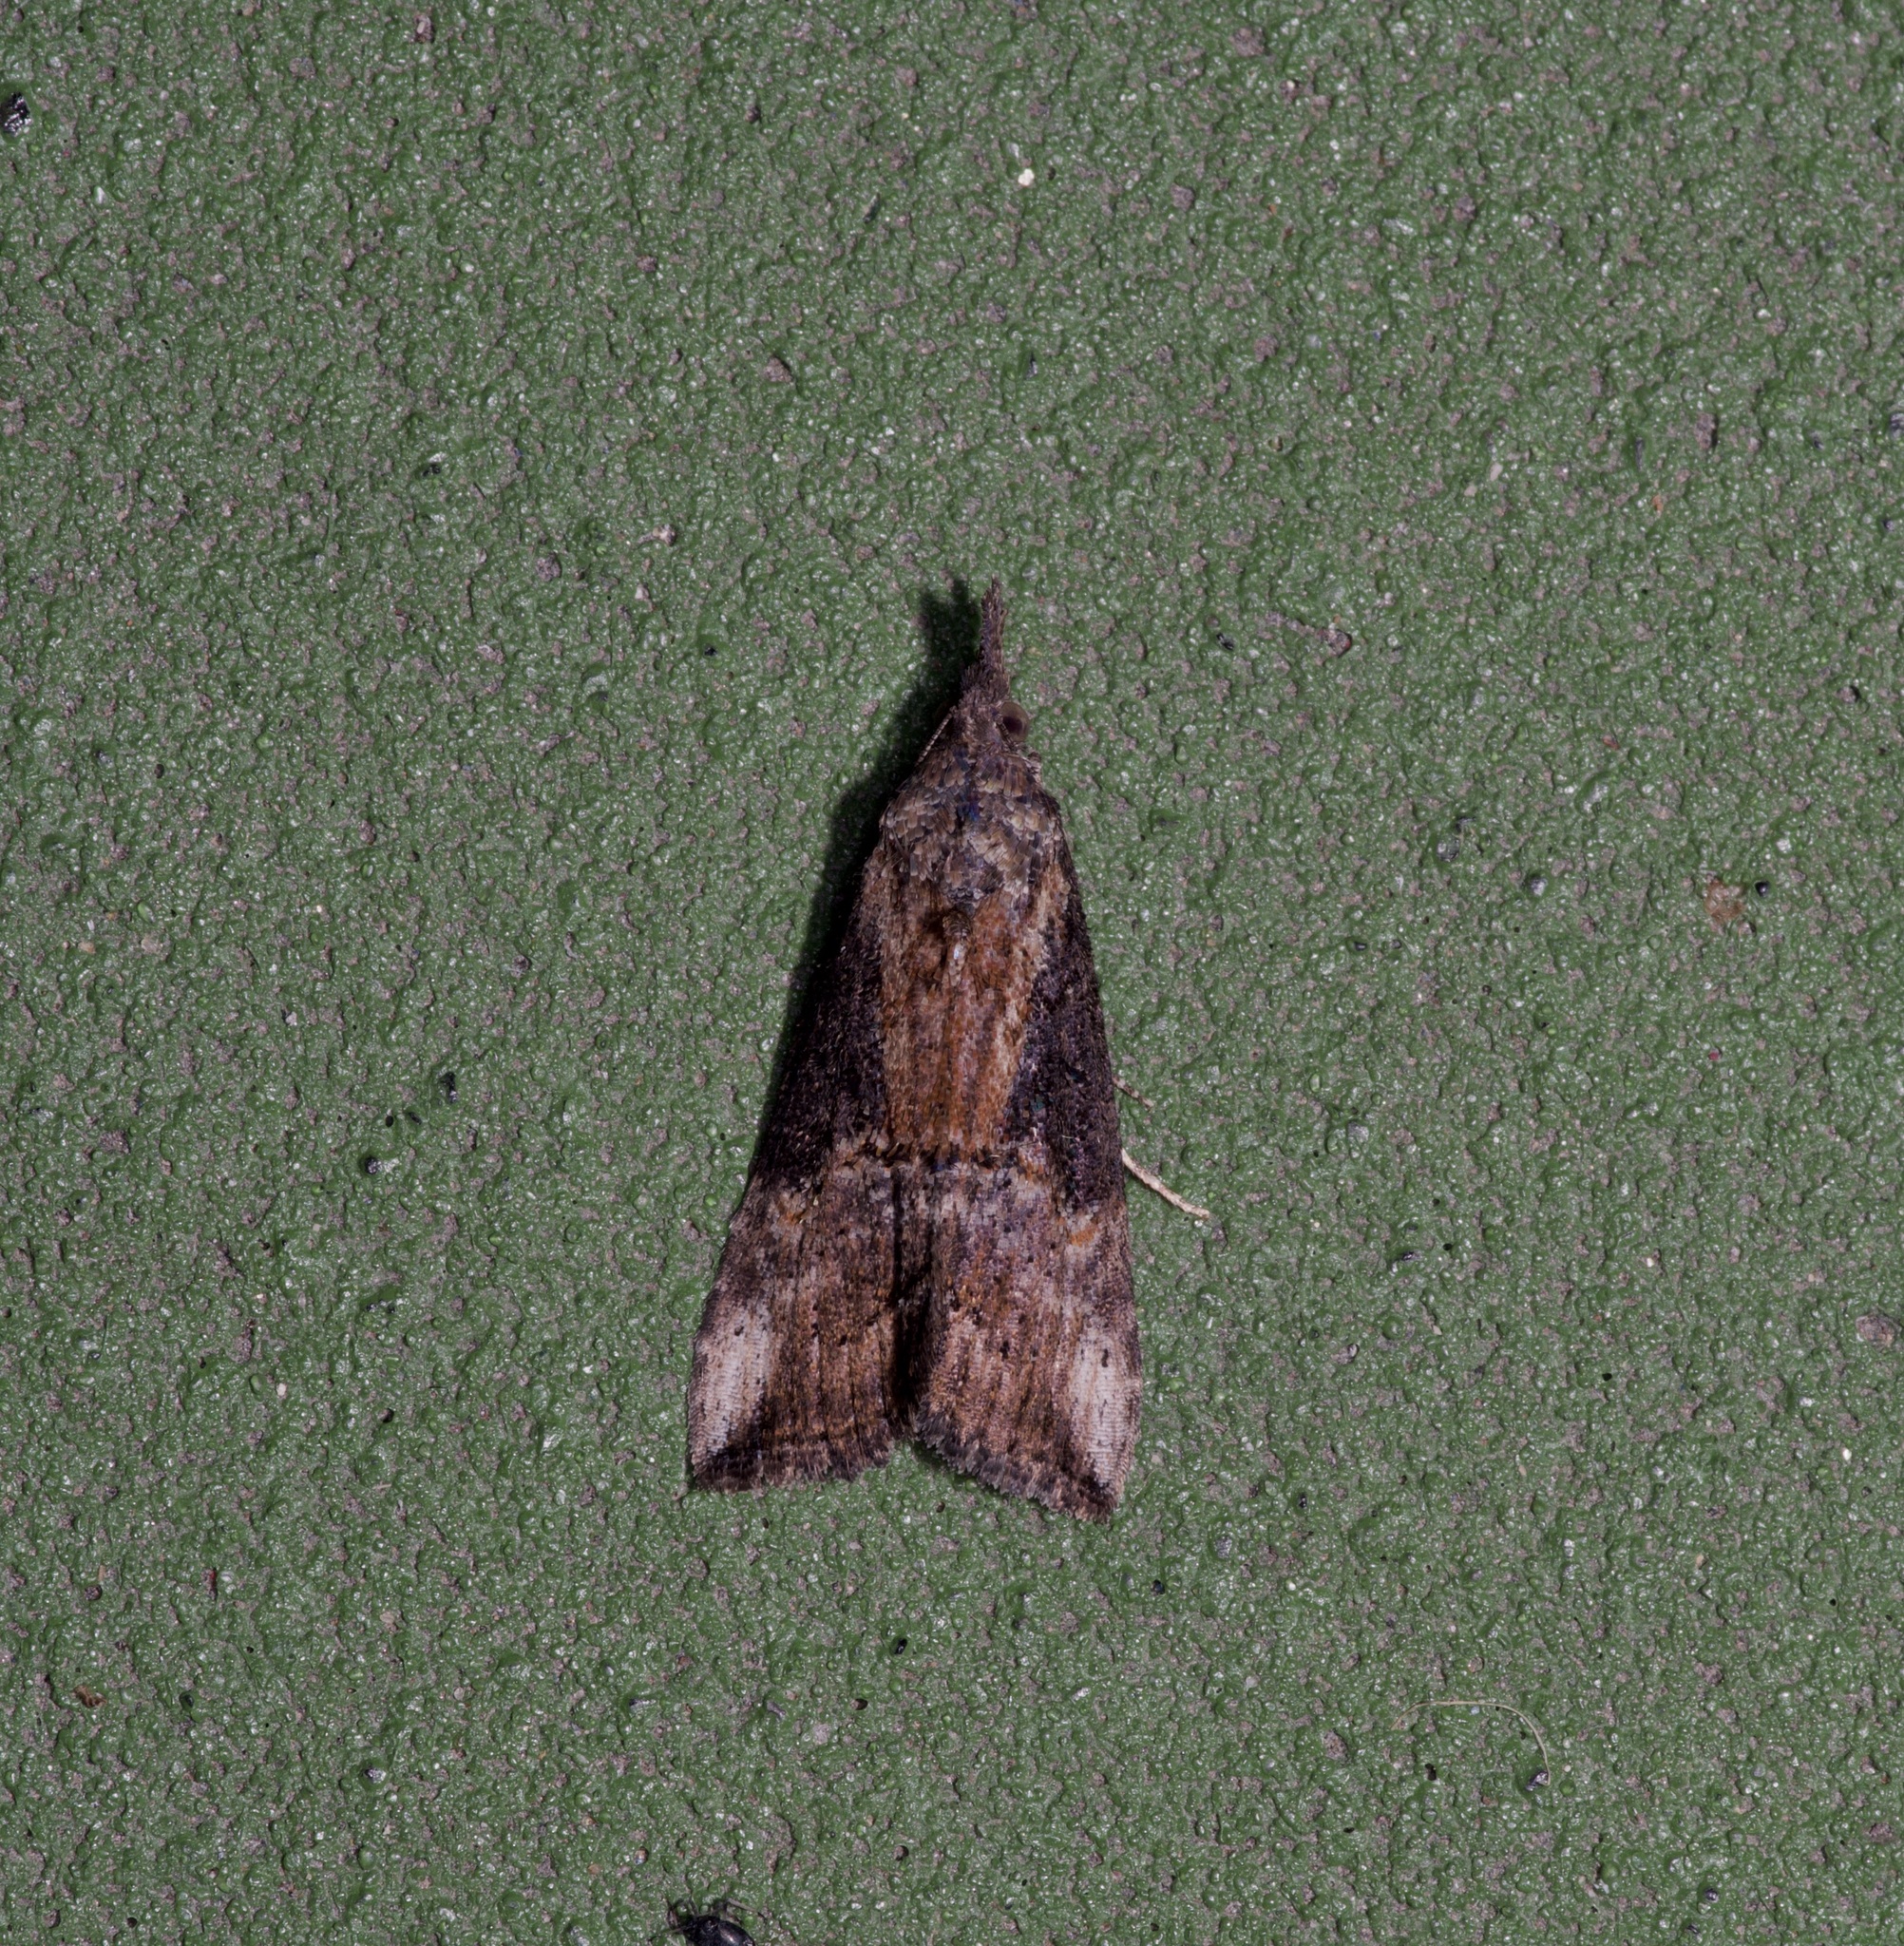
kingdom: Animalia
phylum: Arthropoda
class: Insecta
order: Lepidoptera
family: Erebidae
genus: Hypena
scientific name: Hypena scabra
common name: Green cloverworm
